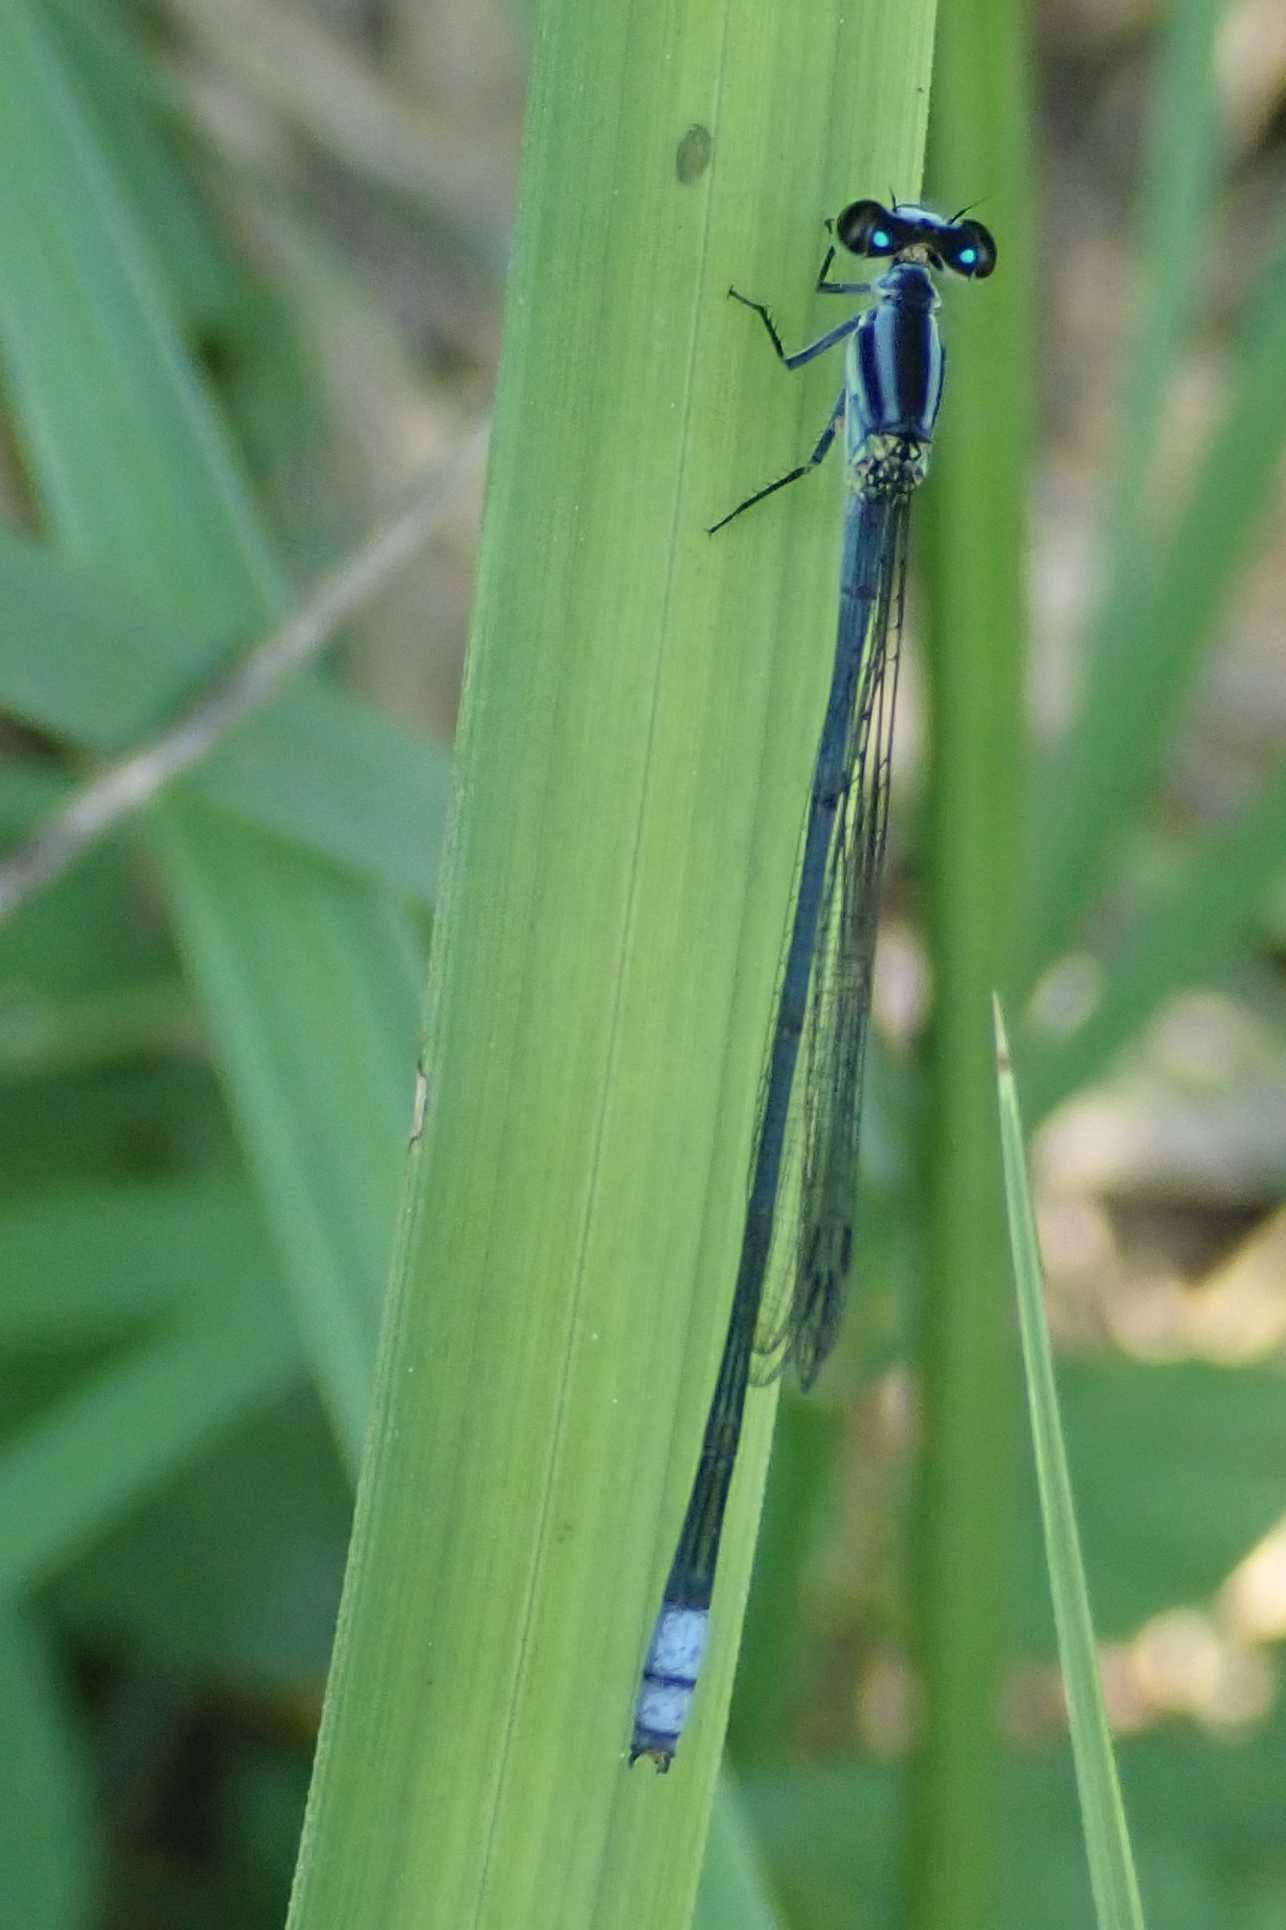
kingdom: Animalia
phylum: Arthropoda
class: Insecta
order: Odonata
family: Coenagrionidae
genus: Pseudagrion
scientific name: Pseudagrion kersteni
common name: Powder-faced sprite
